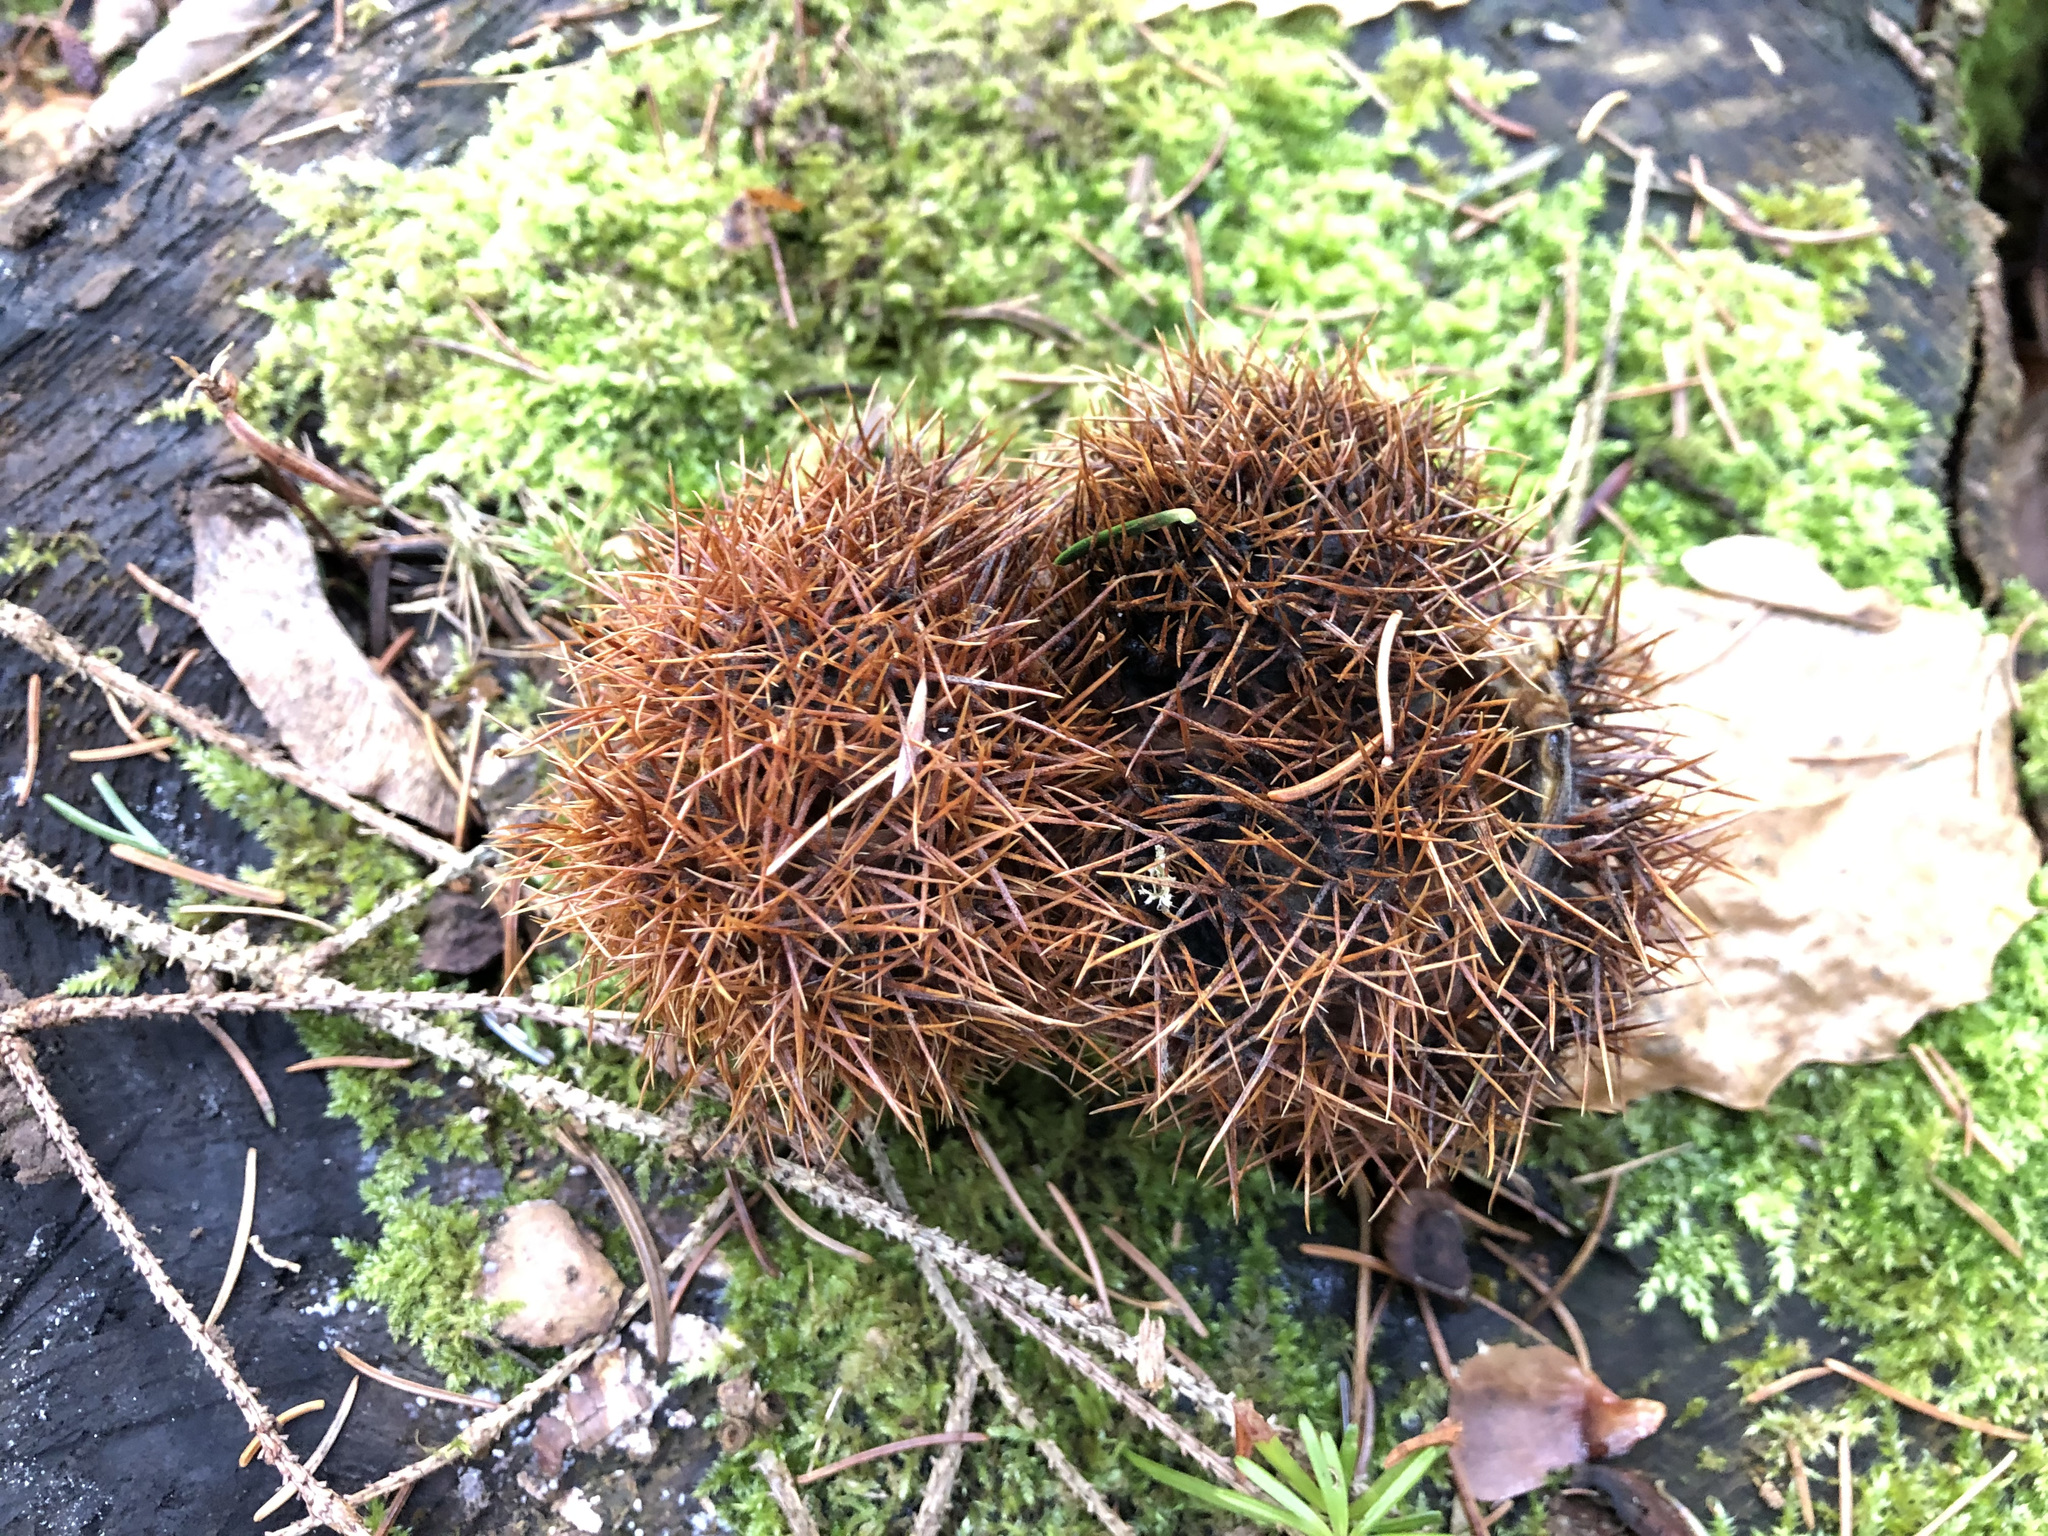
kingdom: Plantae
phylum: Tracheophyta
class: Magnoliopsida
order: Fagales
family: Fagaceae
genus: Castanea
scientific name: Castanea sativa
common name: Sweet chestnut
